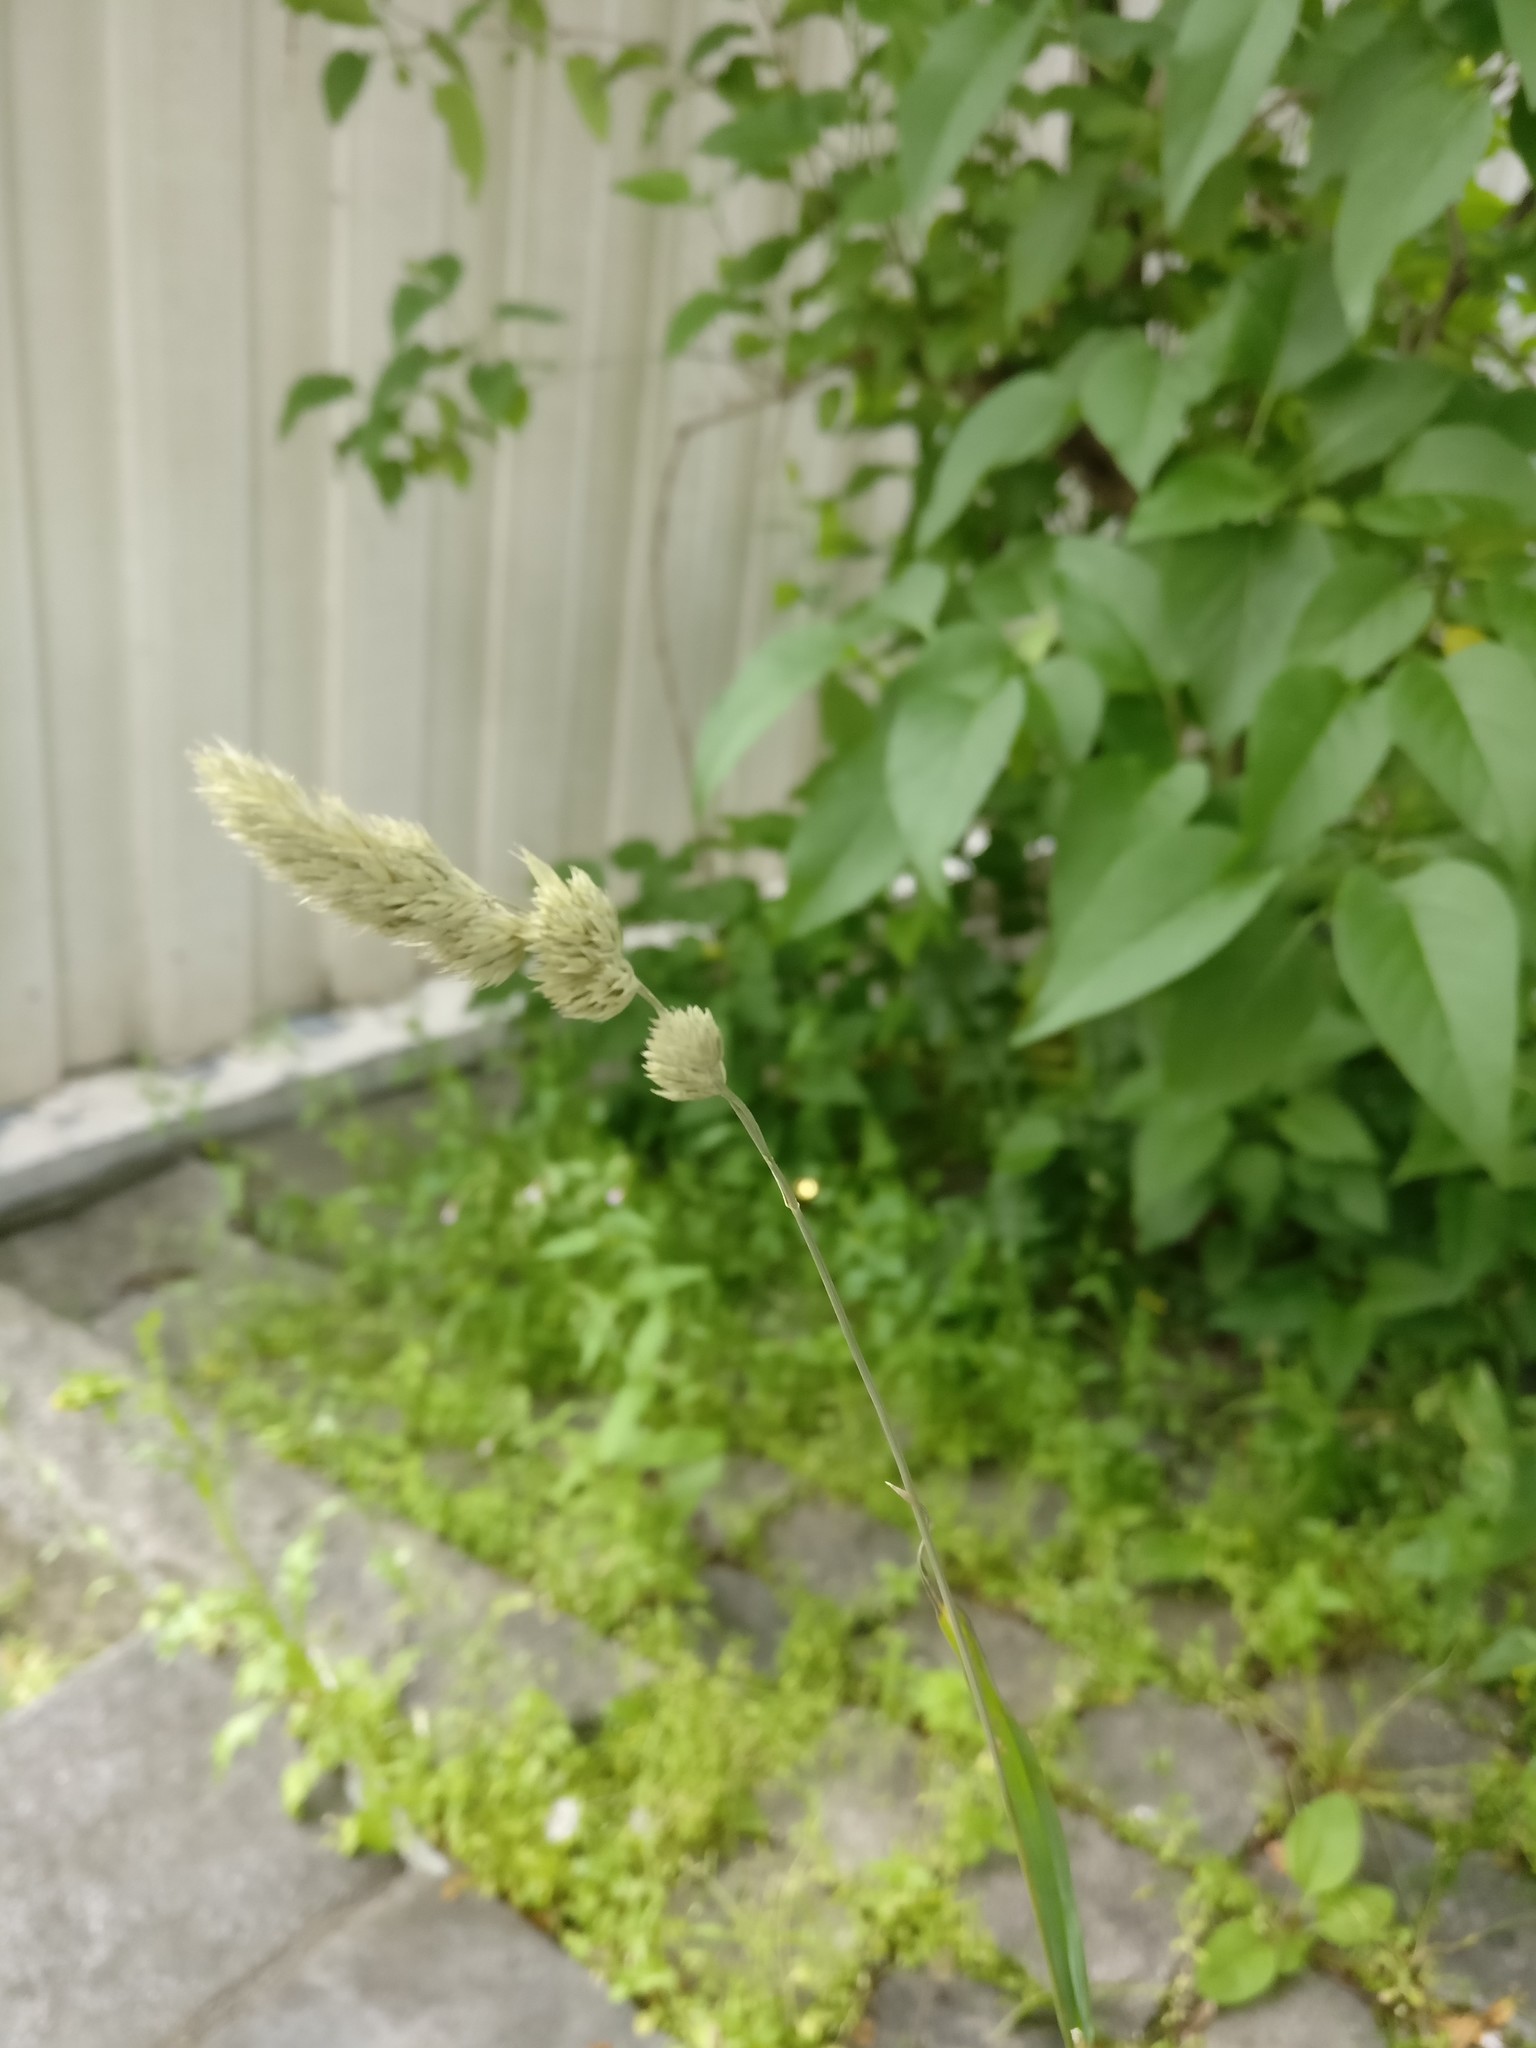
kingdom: Plantae
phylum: Tracheophyta
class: Liliopsida
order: Poales
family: Poaceae
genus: Dactylis
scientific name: Dactylis glomerata
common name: Orchardgrass
